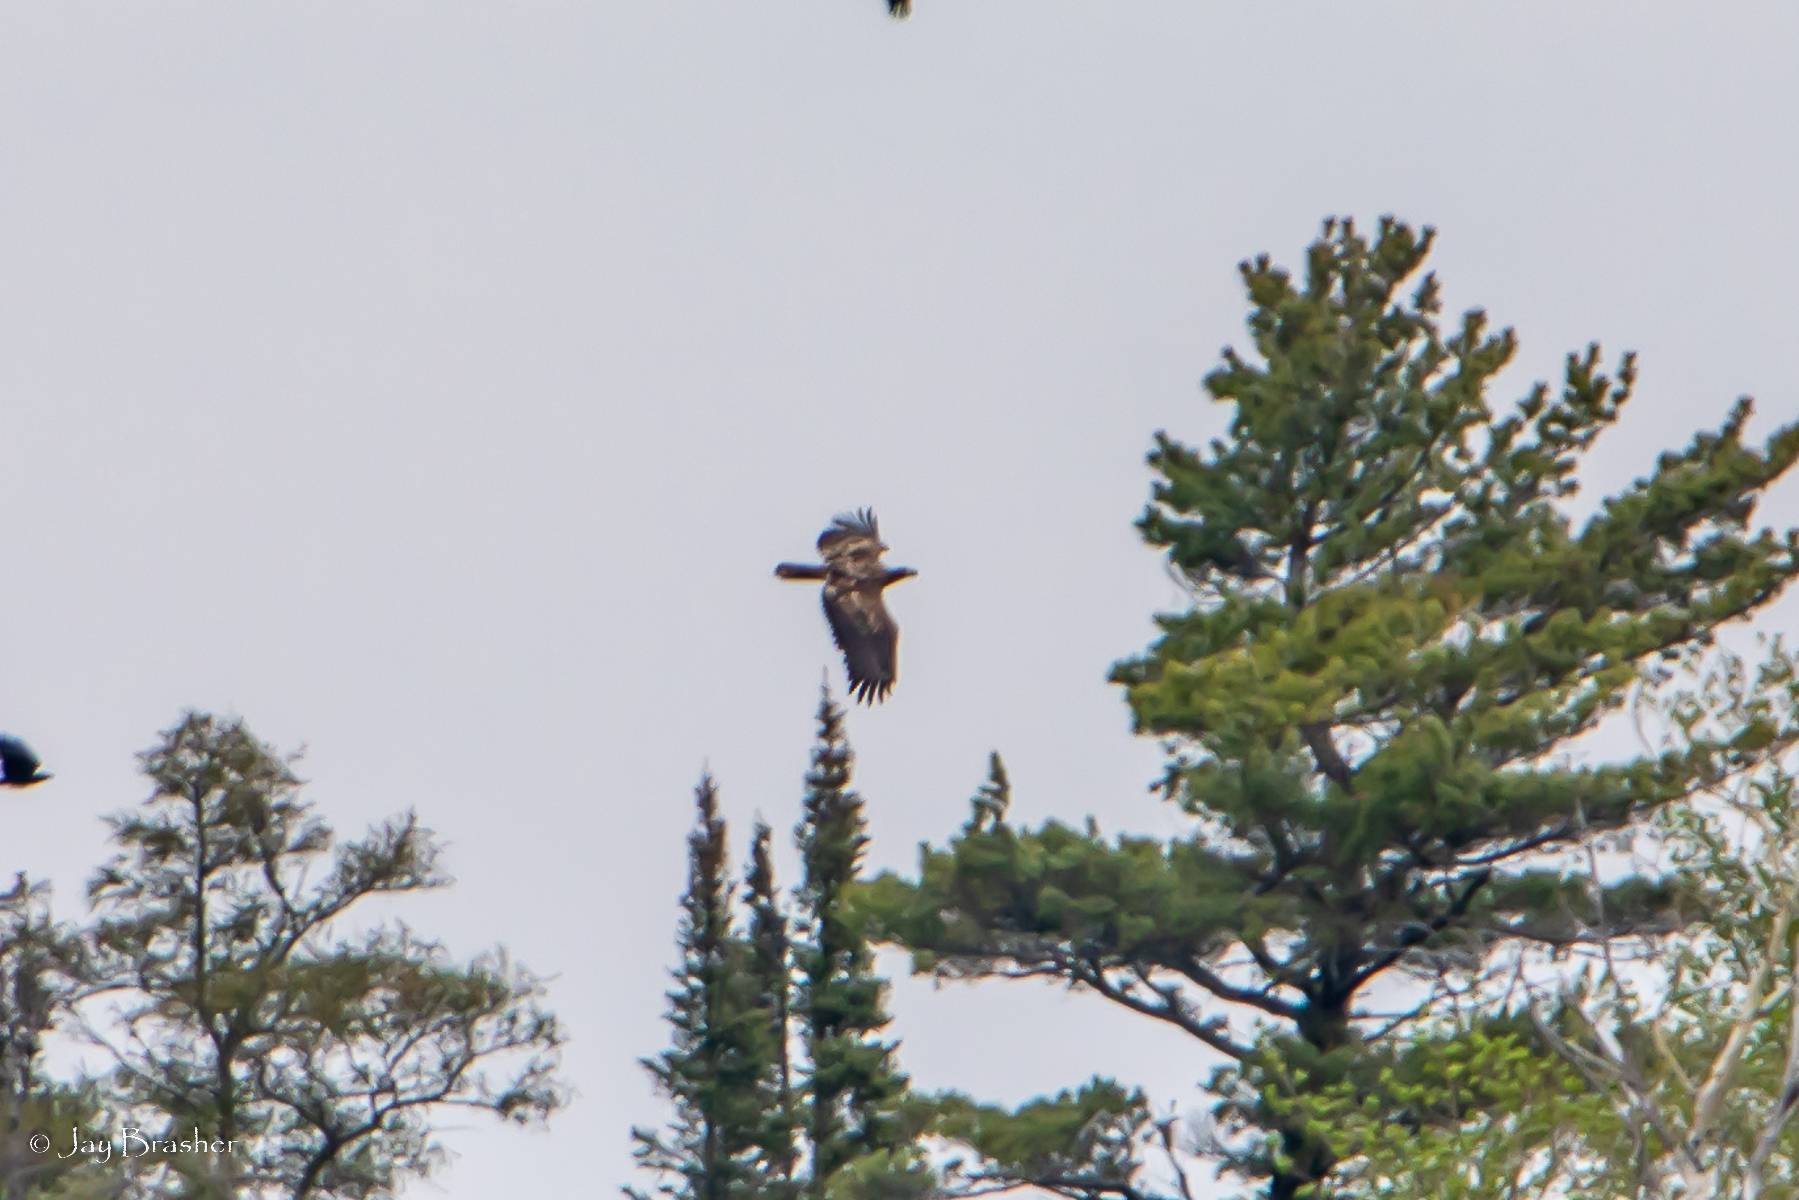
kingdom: Animalia
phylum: Chordata
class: Aves
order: Accipitriformes
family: Accipitridae
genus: Haliaeetus
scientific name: Haliaeetus leucocephalus
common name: Bald eagle
